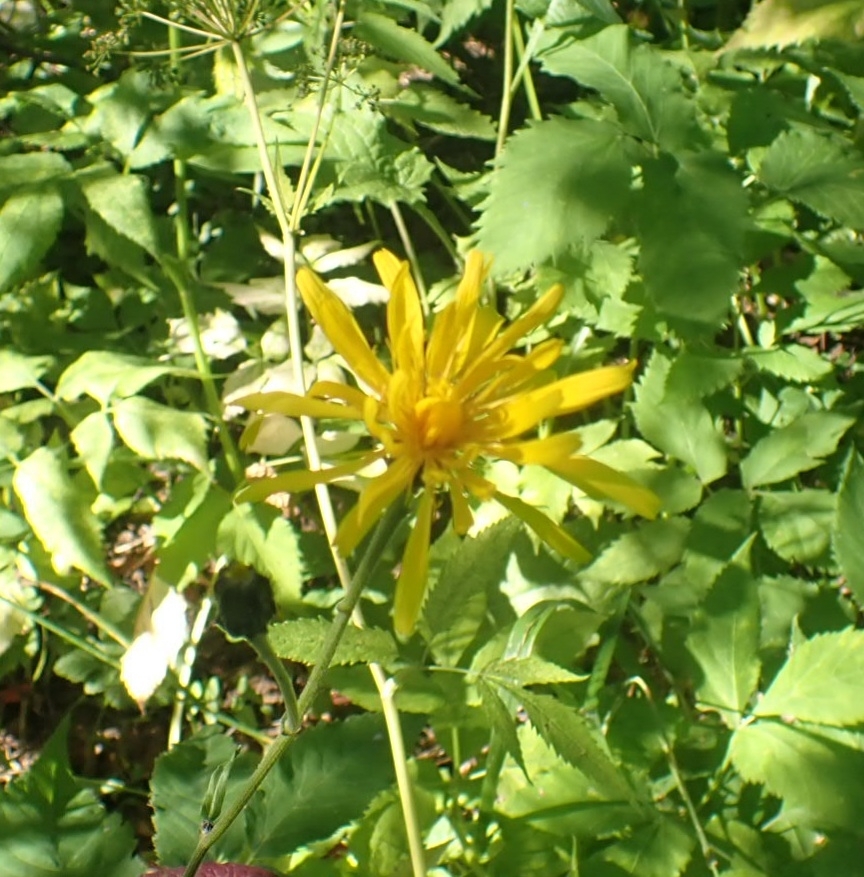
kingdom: Plantae
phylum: Tracheophyta
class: Magnoliopsida
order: Asterales
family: Asteraceae
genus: Crepis
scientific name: Crepis sibirica
